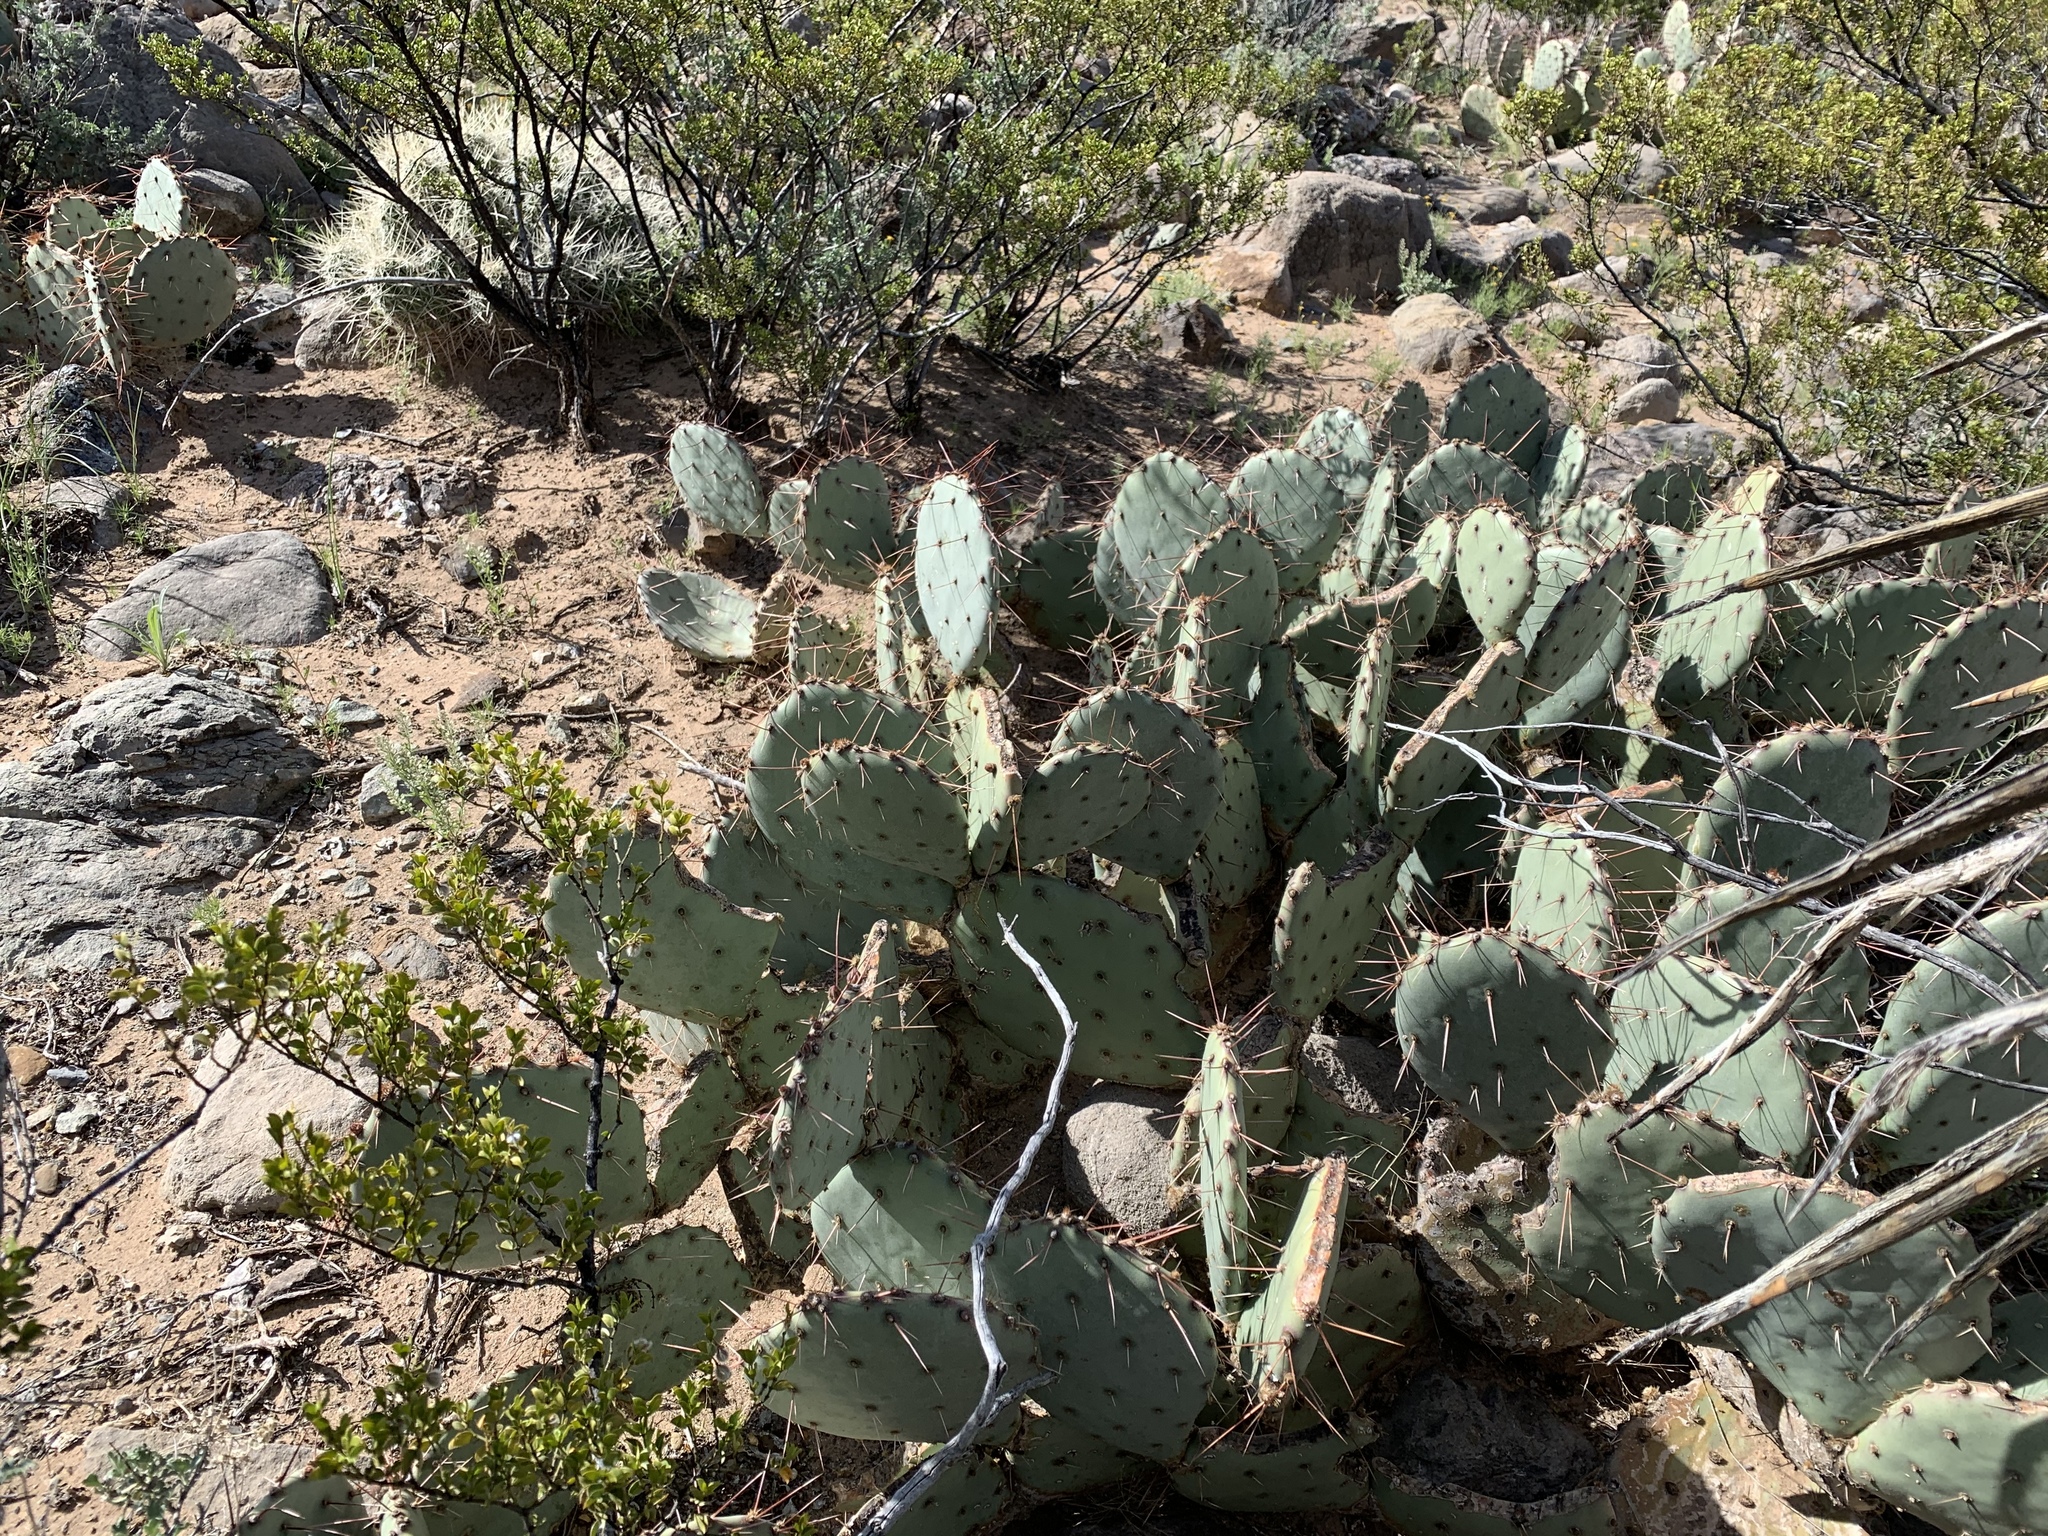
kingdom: Plantae
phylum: Tracheophyta
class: Magnoliopsida
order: Caryophyllales
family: Cactaceae
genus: Opuntia
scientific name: Opuntia engelmannii
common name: Cactus-apple
